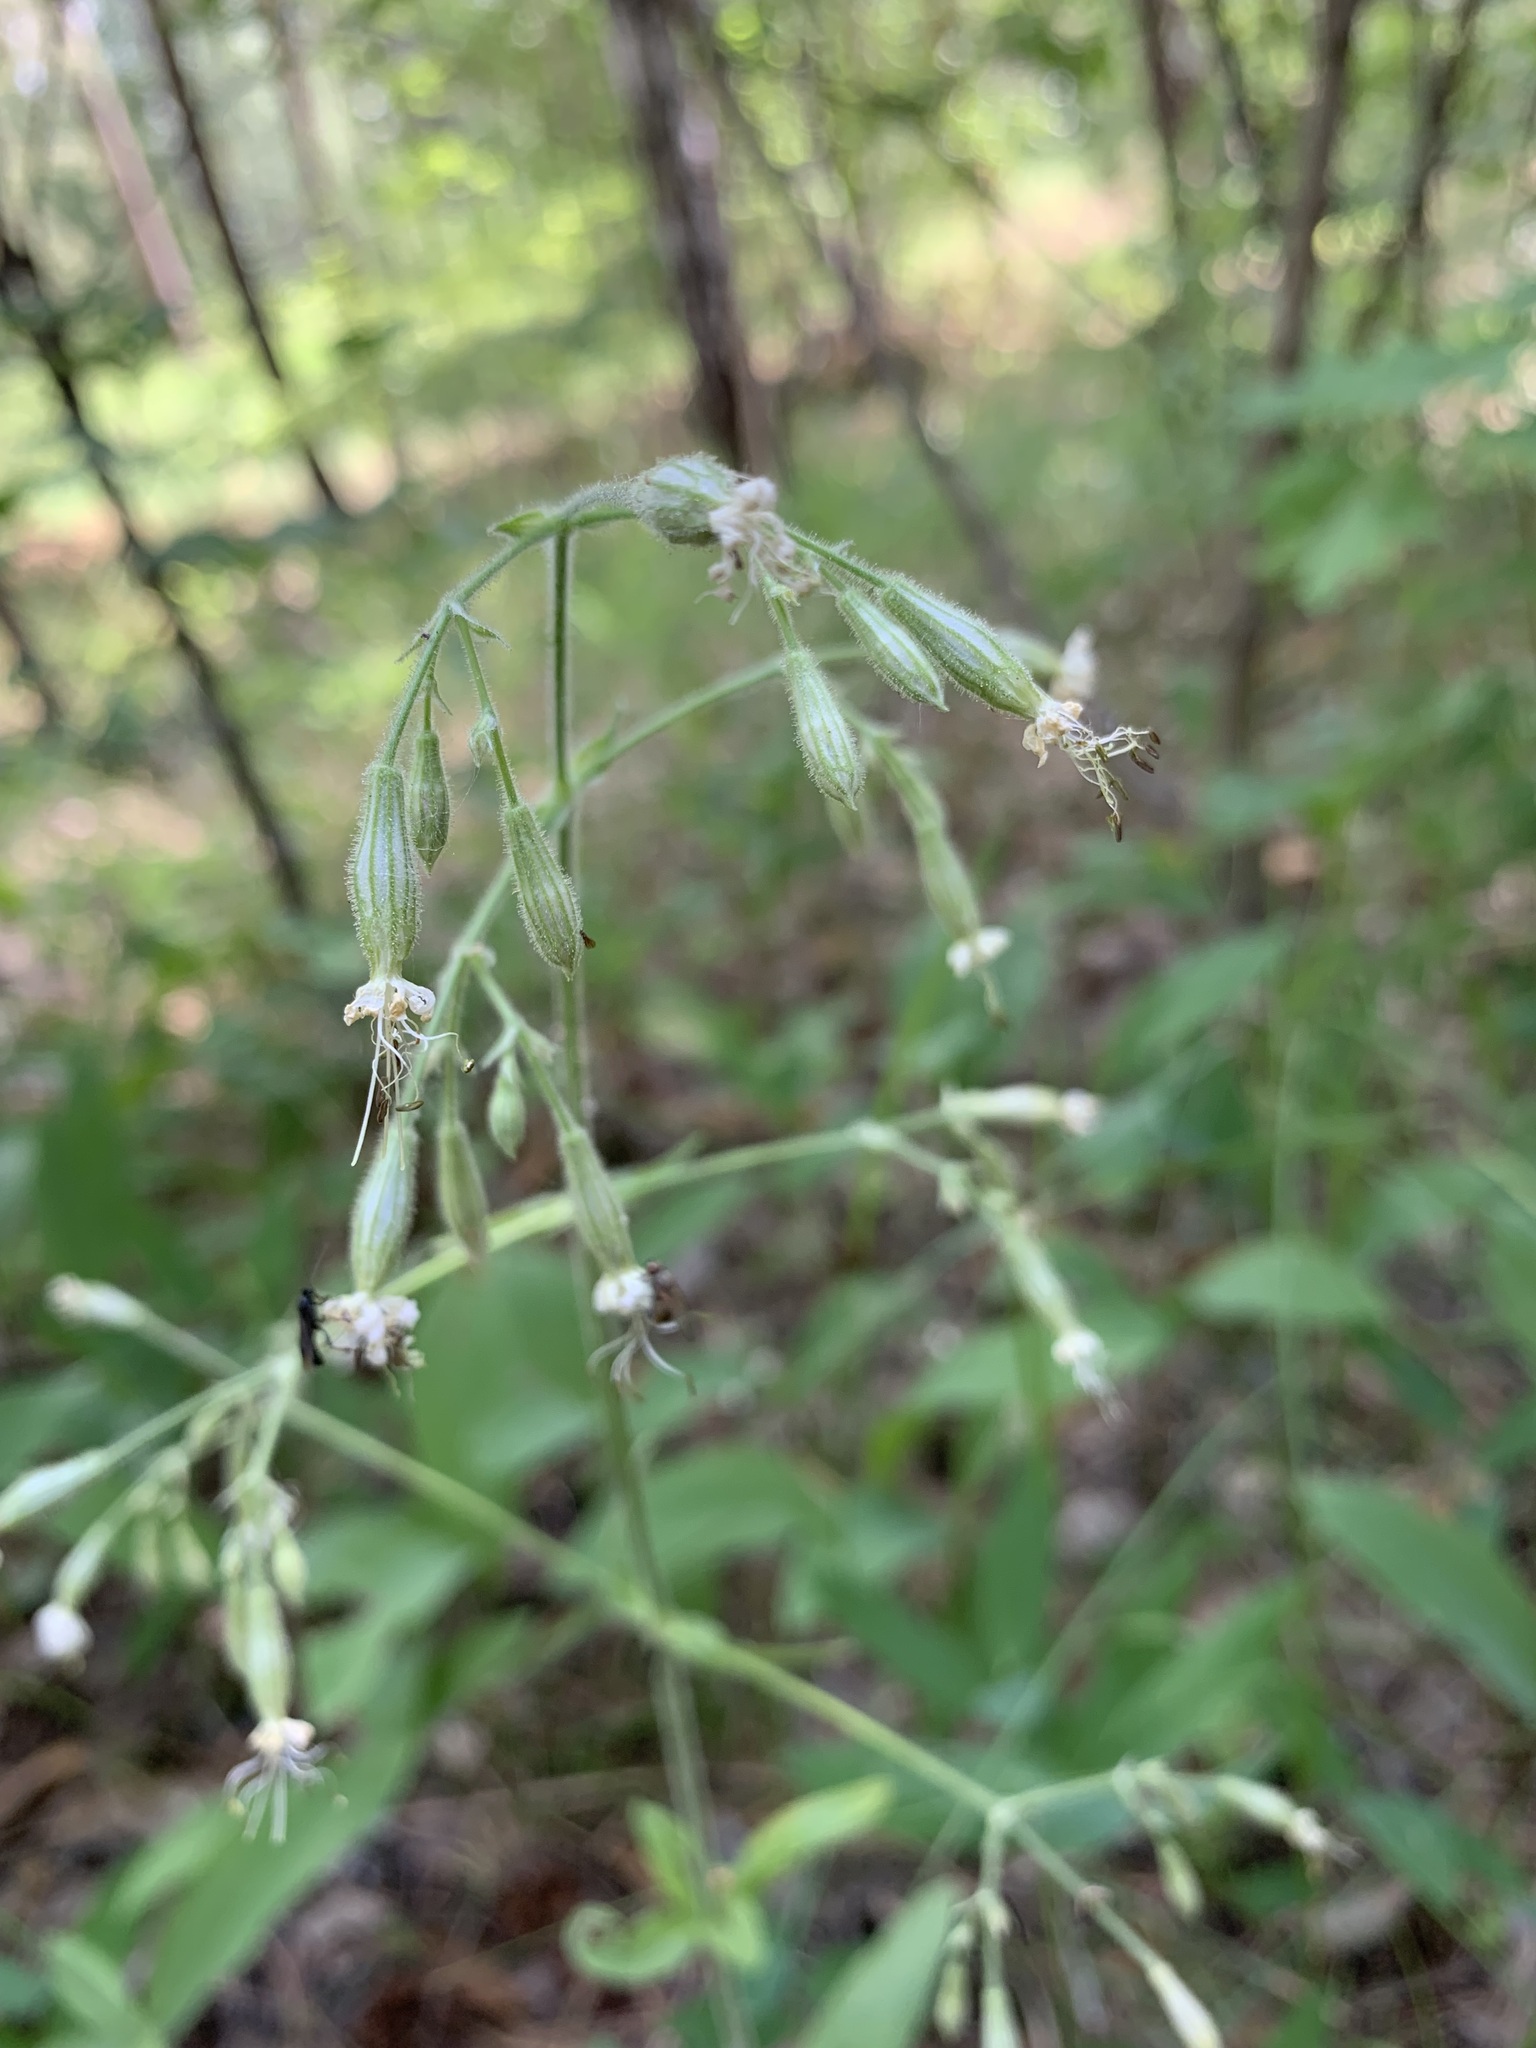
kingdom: Plantae
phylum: Tracheophyta
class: Magnoliopsida
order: Caryophyllales
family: Caryophyllaceae
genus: Silene
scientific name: Silene nutans
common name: Nottingham catchfly
